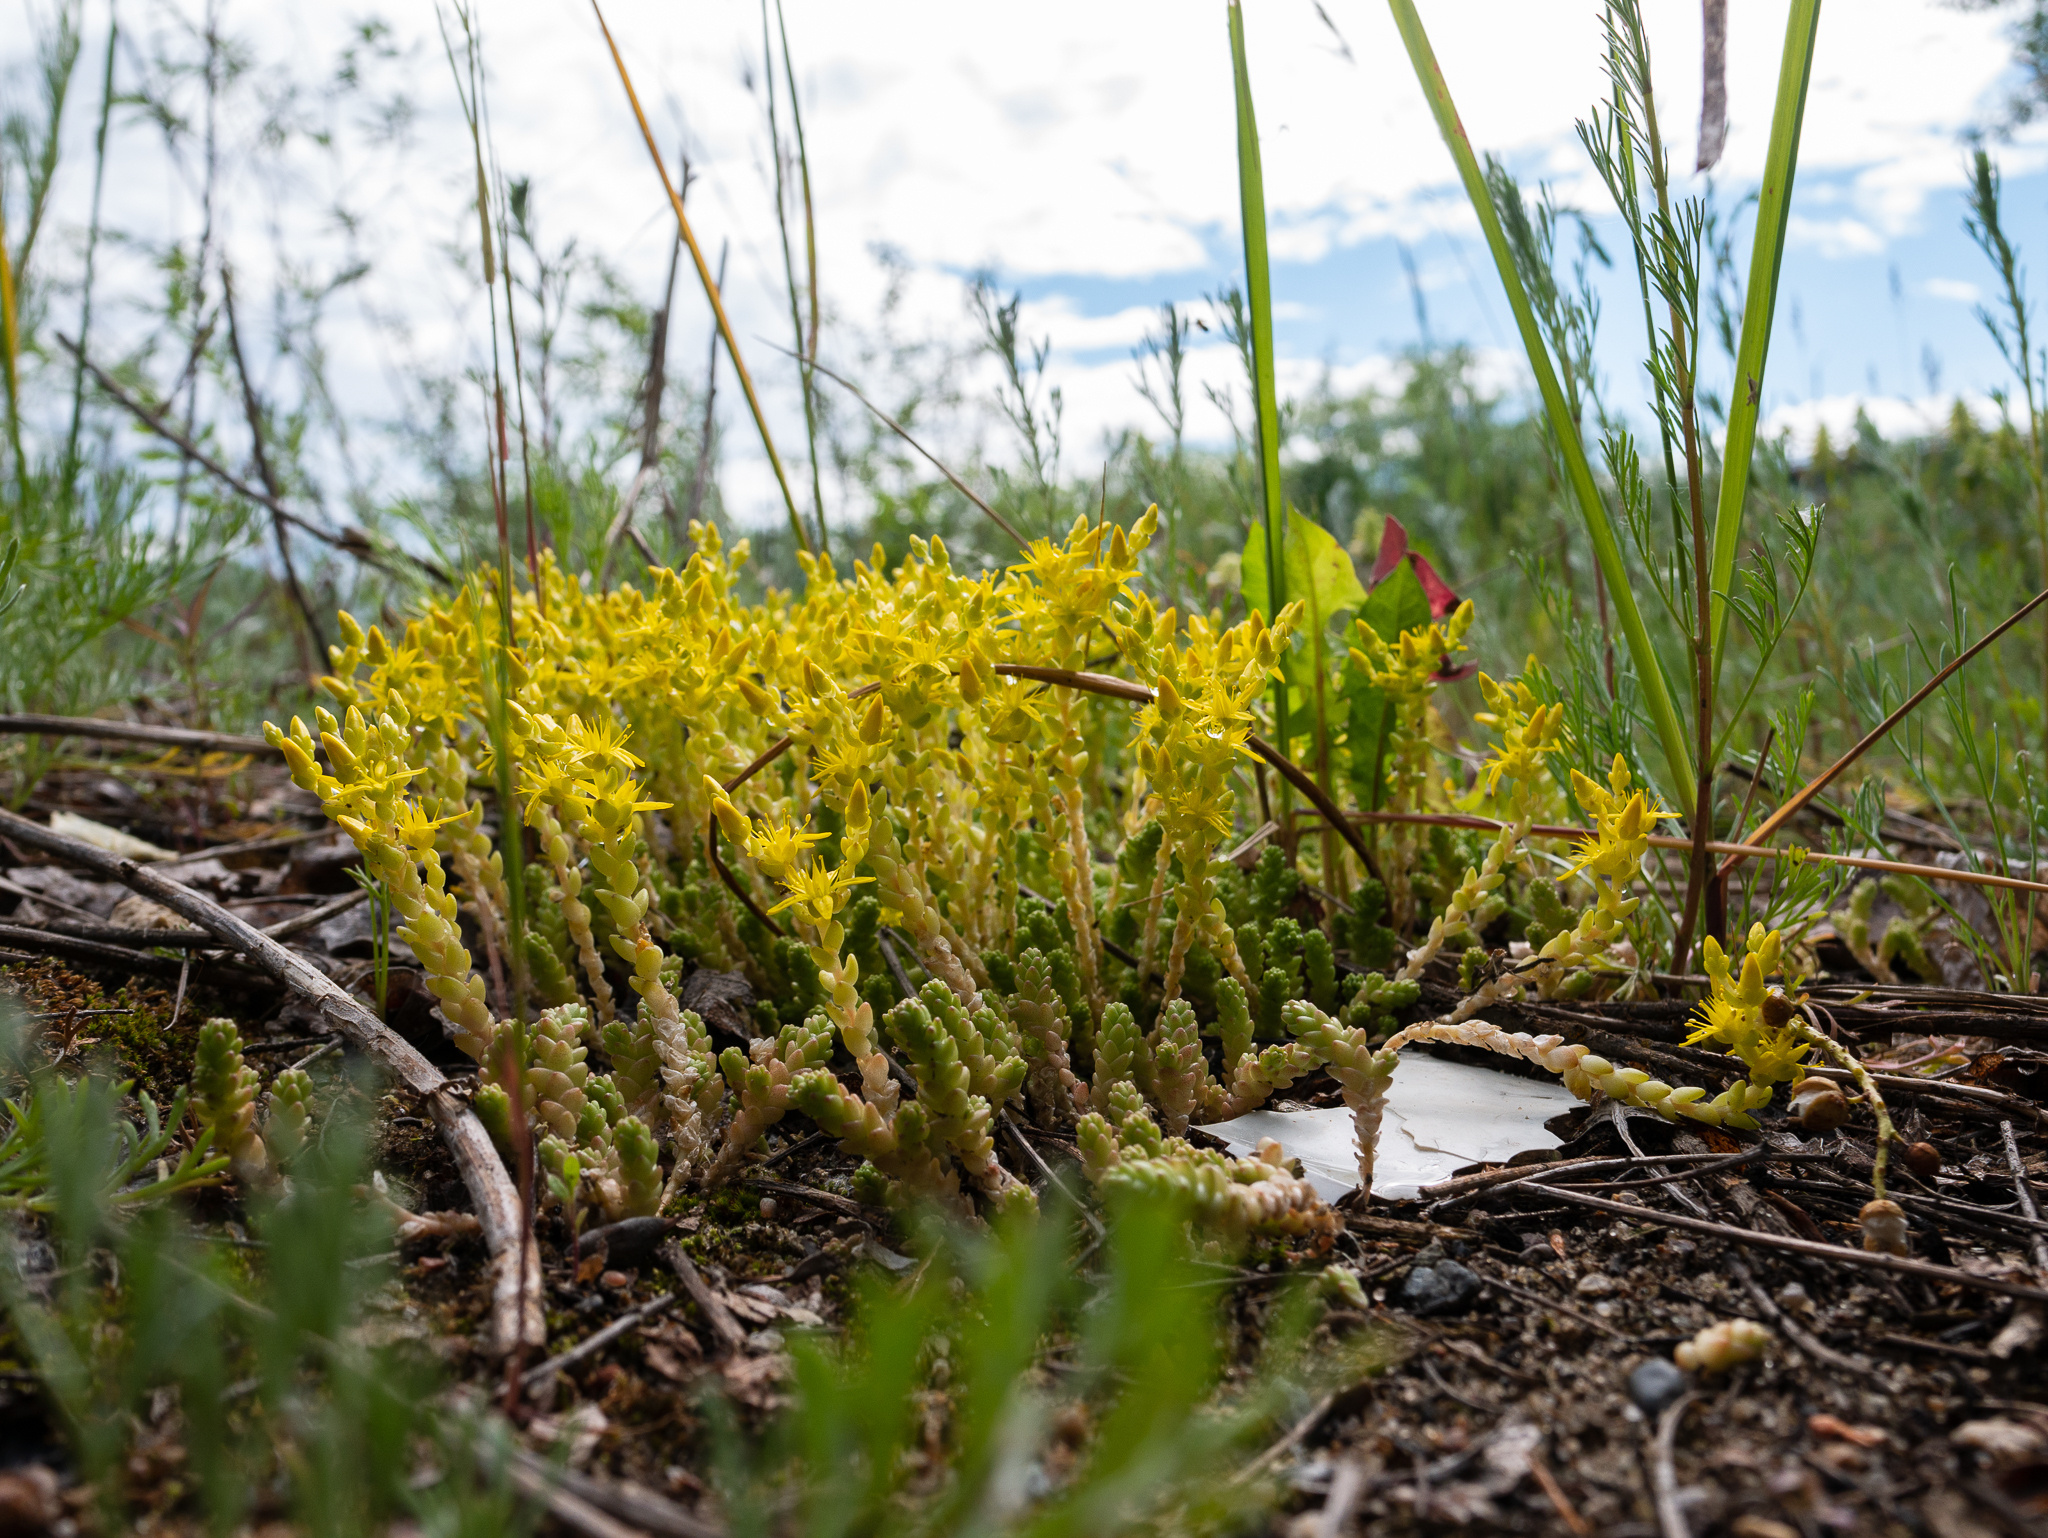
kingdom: Plantae
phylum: Tracheophyta
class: Magnoliopsida
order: Saxifragales
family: Crassulaceae
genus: Sedum
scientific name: Sedum acre
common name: Biting stonecrop
